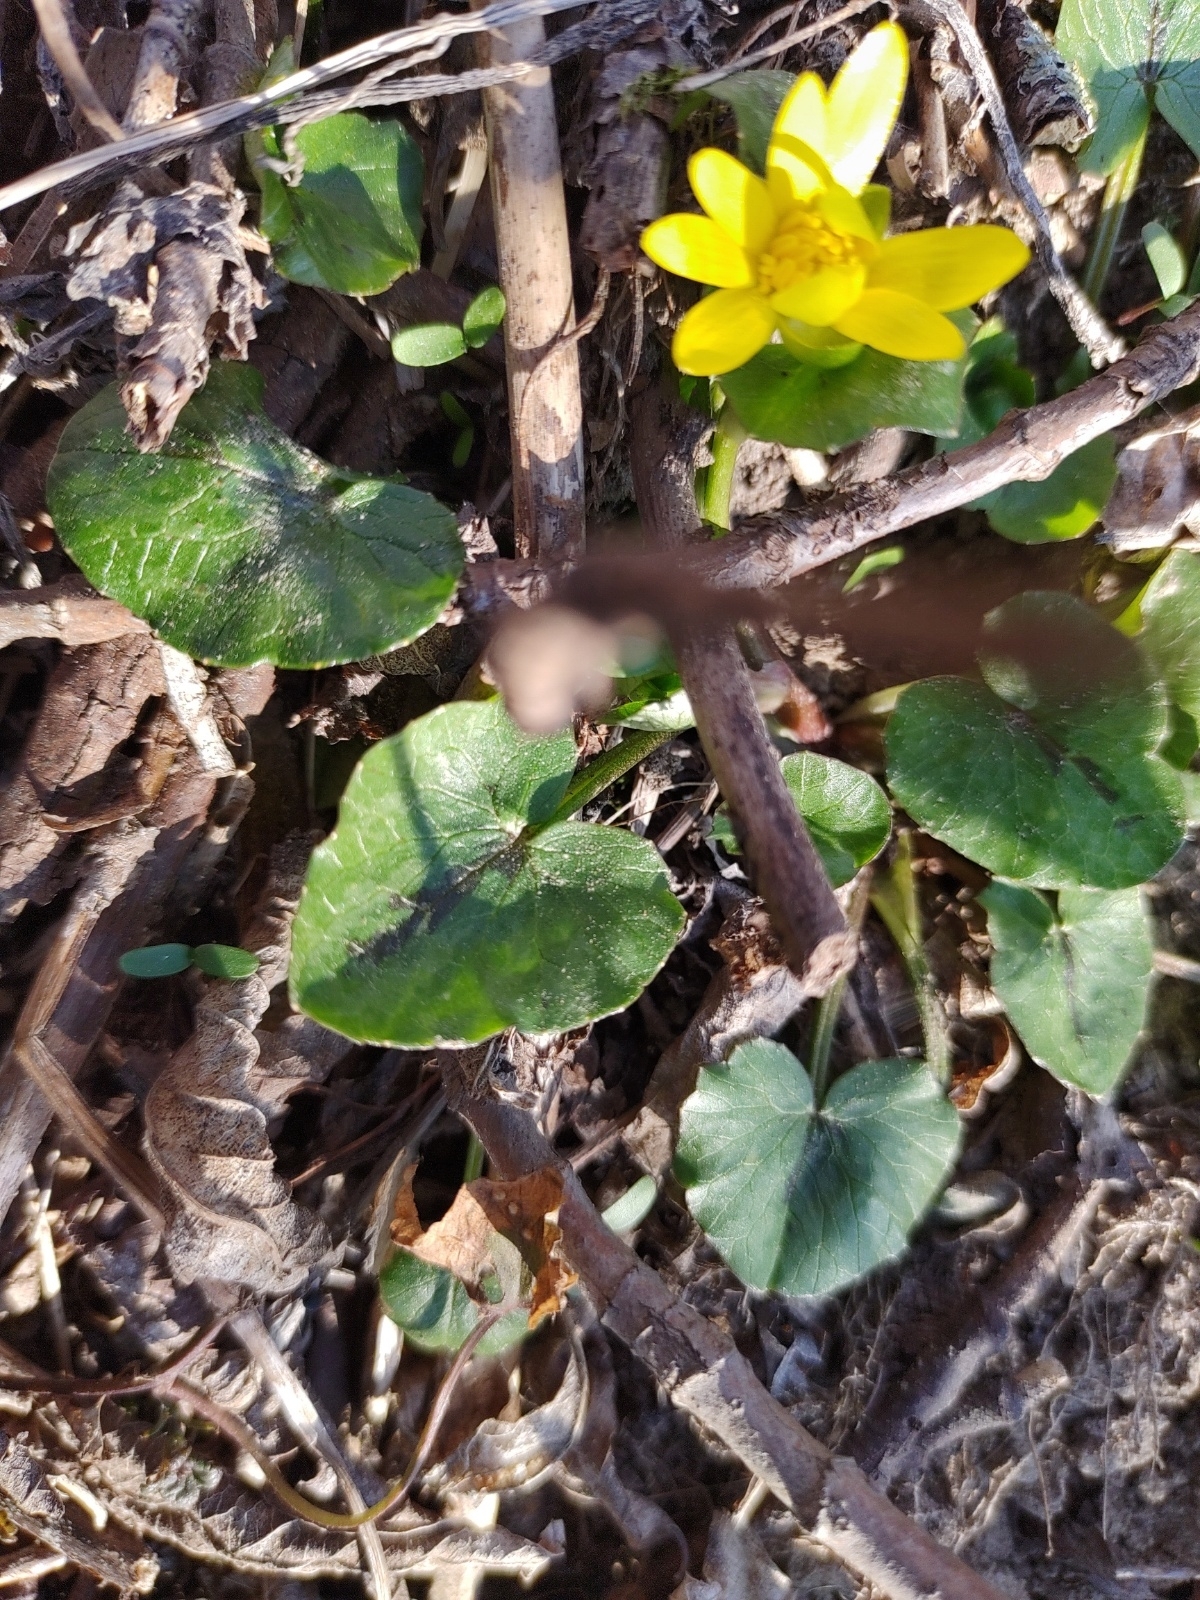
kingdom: Plantae
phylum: Tracheophyta
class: Magnoliopsida
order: Ranunculales
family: Ranunculaceae
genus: Ficaria
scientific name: Ficaria verna
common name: Lesser celandine
